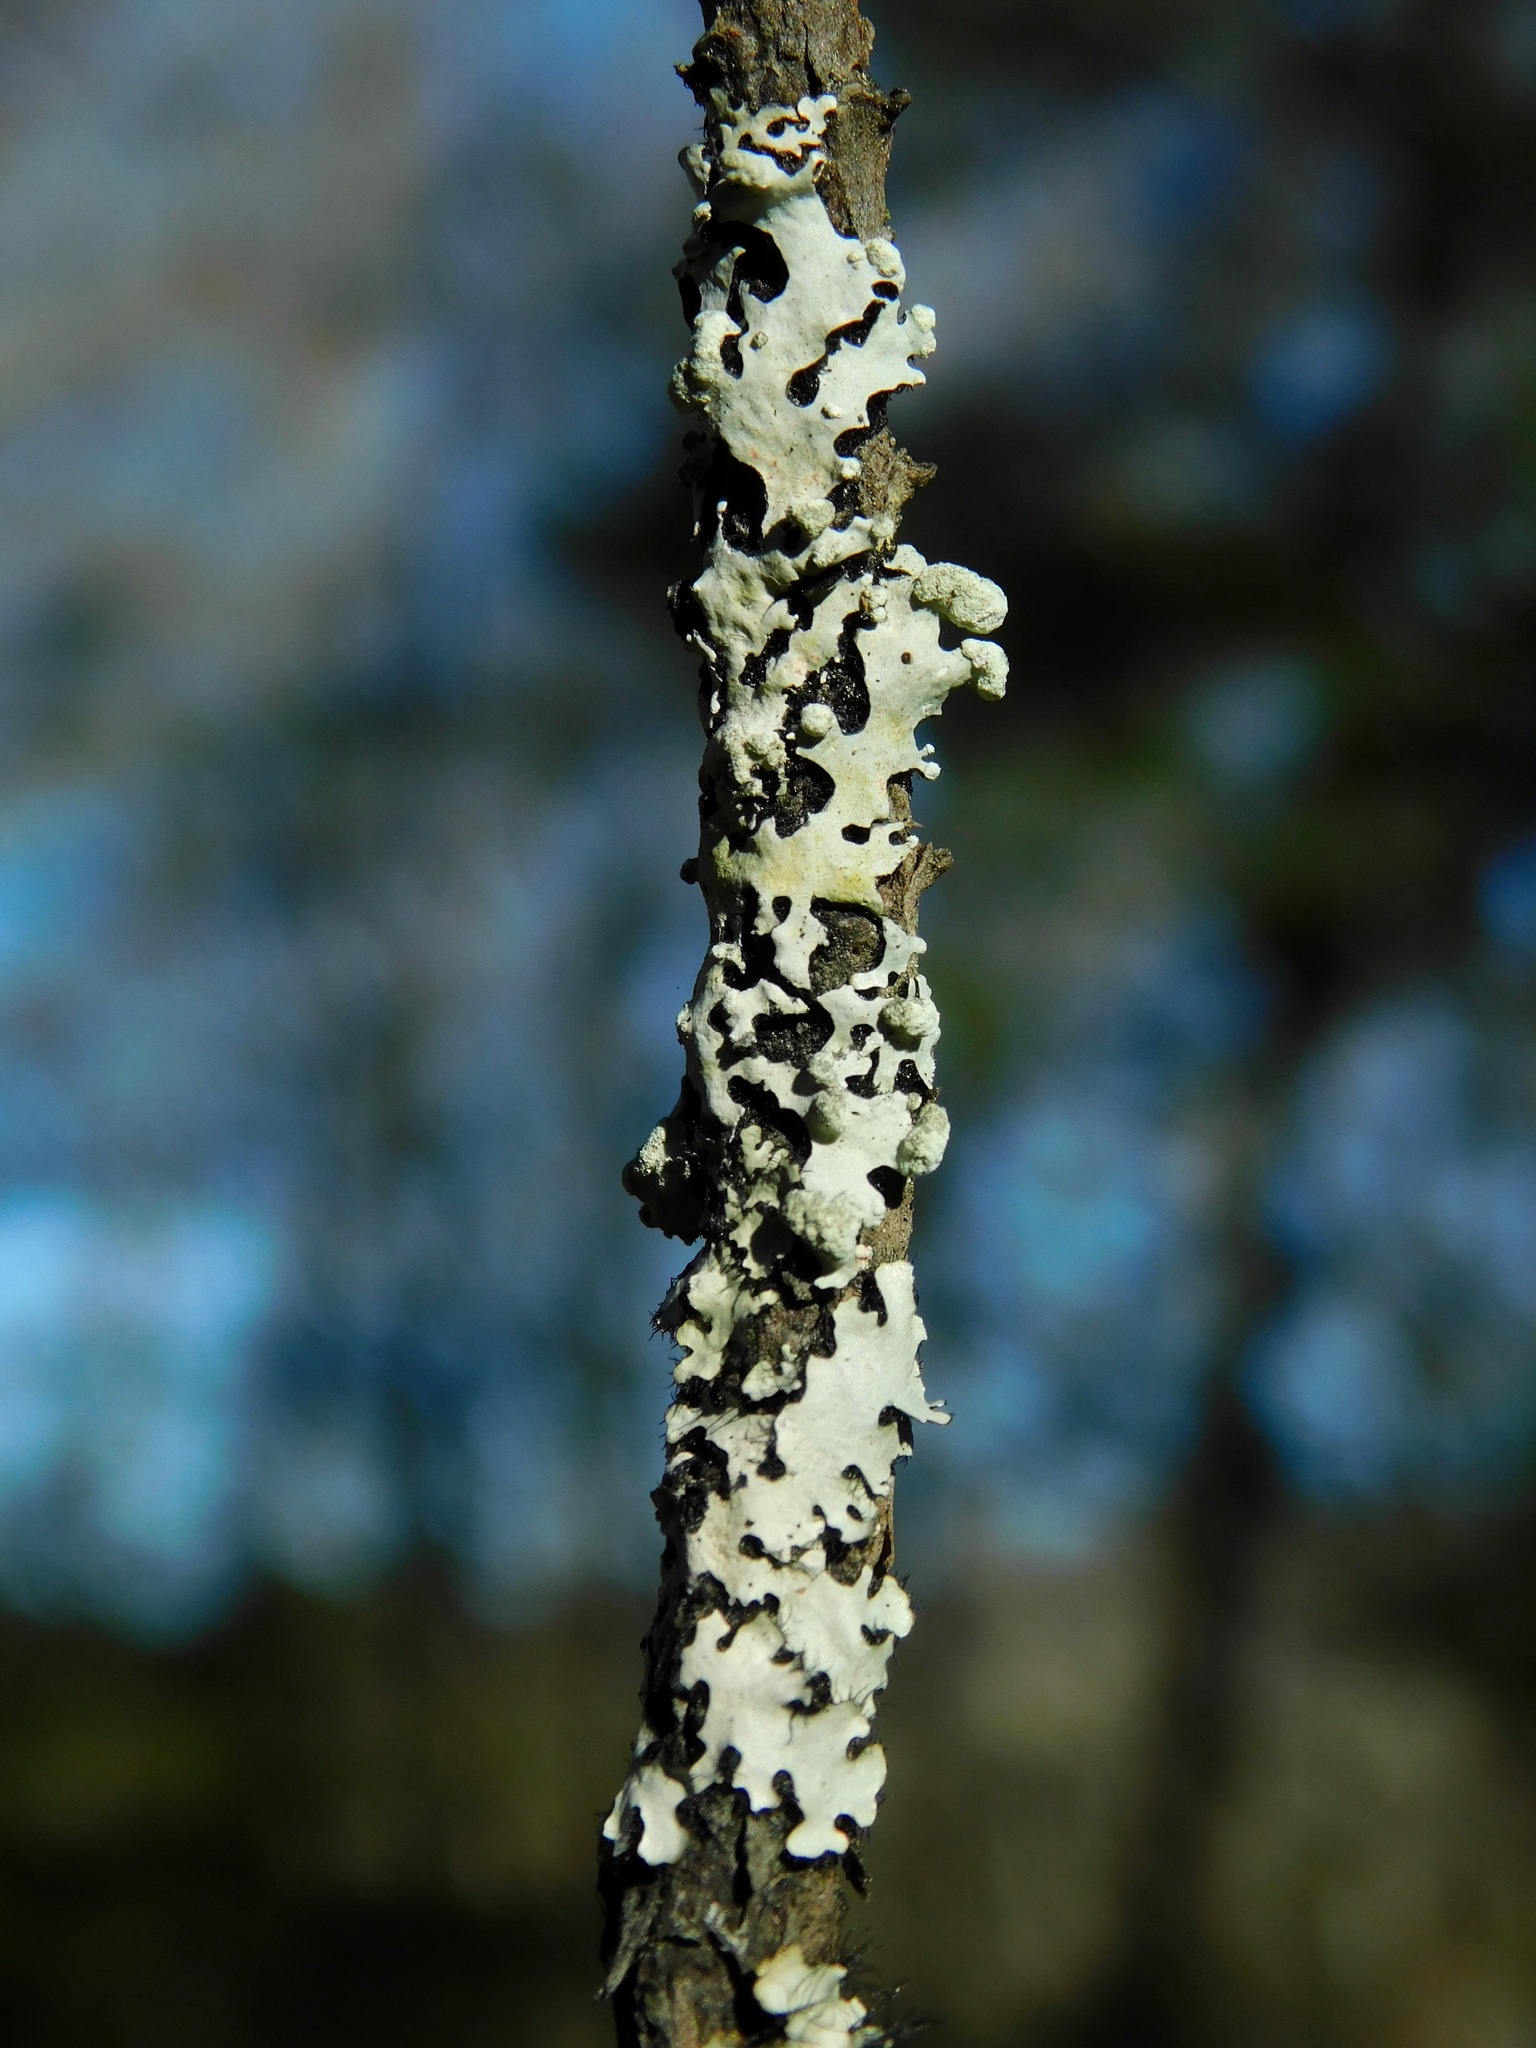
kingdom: Fungi
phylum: Ascomycota
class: Lecanoromycetes
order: Lecanorales
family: Parmeliaceae
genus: Myelochroa
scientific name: Myelochroa metarevoluta
